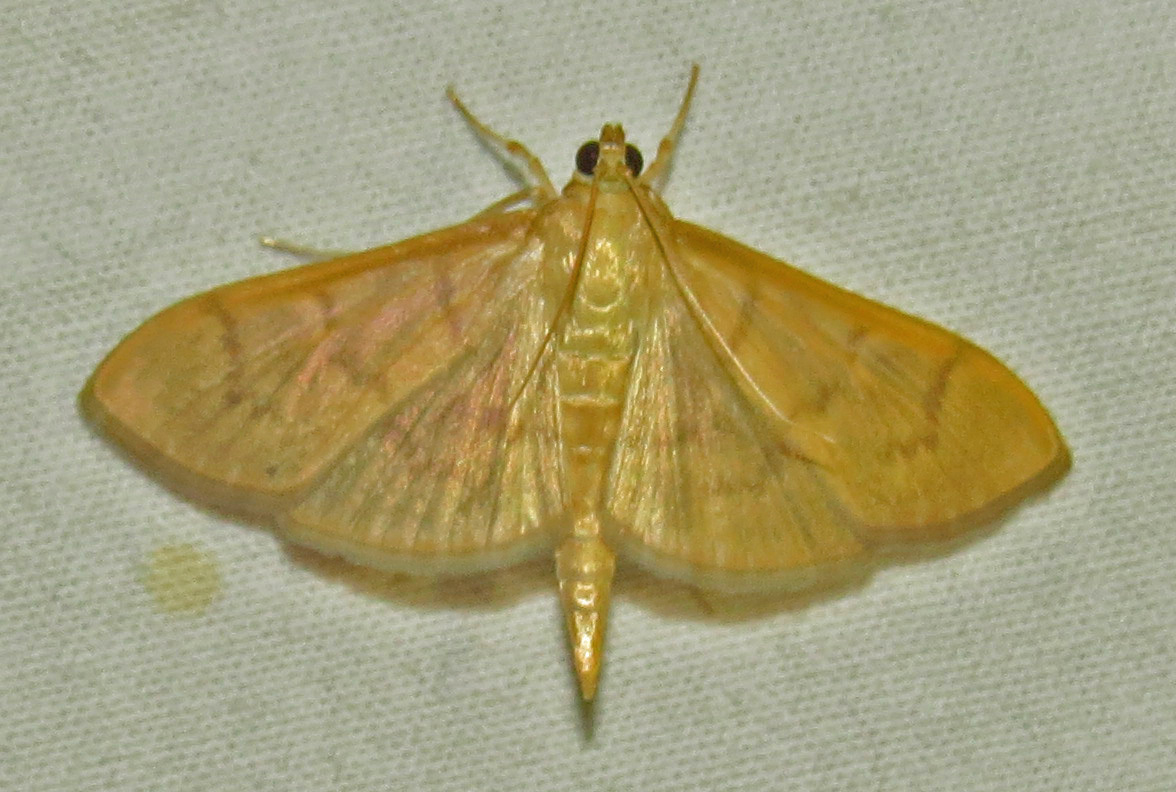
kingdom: Animalia
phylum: Arthropoda
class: Insecta
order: Lepidoptera
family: Crambidae
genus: Pleuroptya
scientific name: Pleuroptya silicalis
